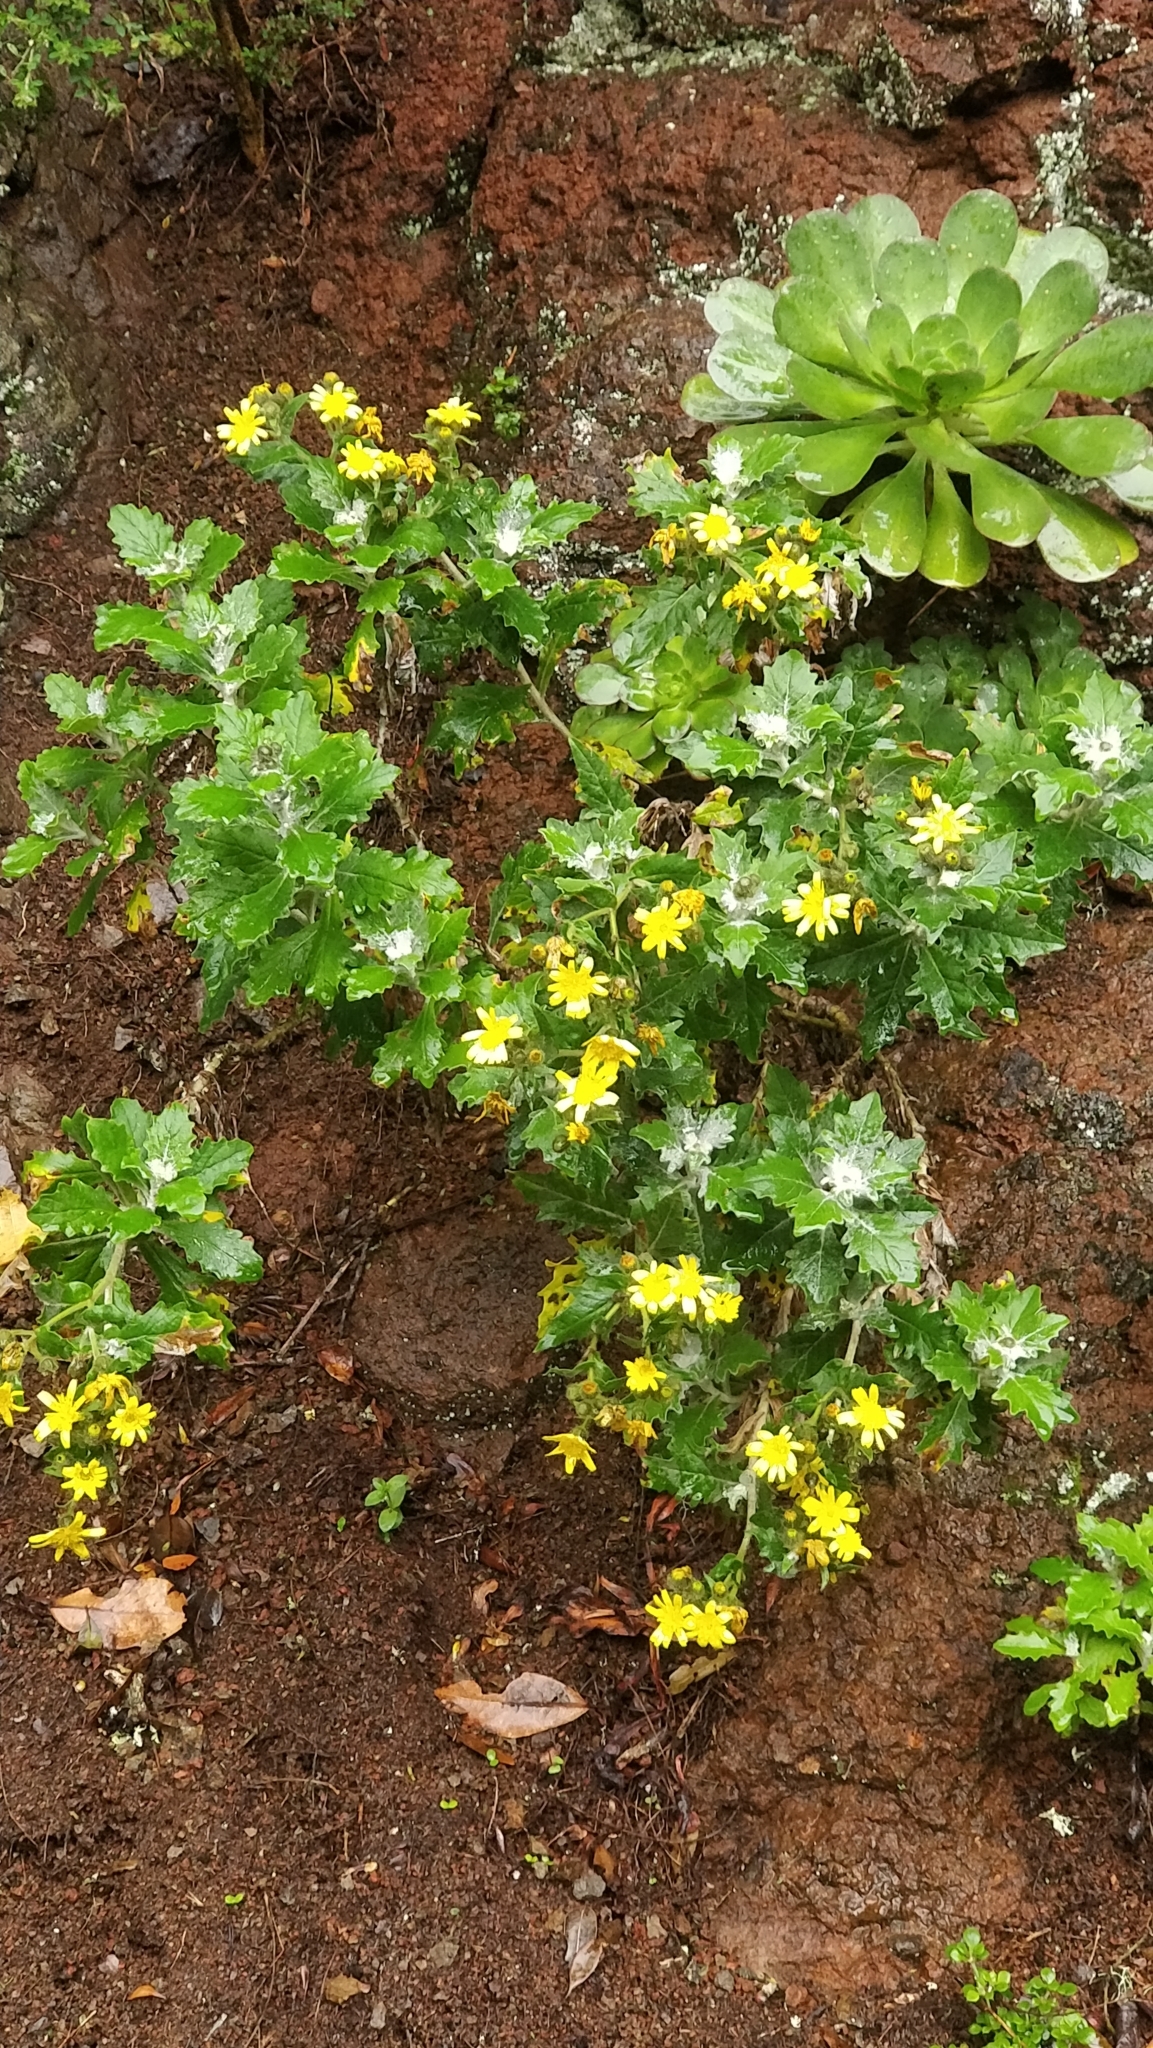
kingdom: Plantae
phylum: Tracheophyta
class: Magnoliopsida
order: Asterales
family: Asteraceae
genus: Andryala
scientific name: Andryala pinnatifida
